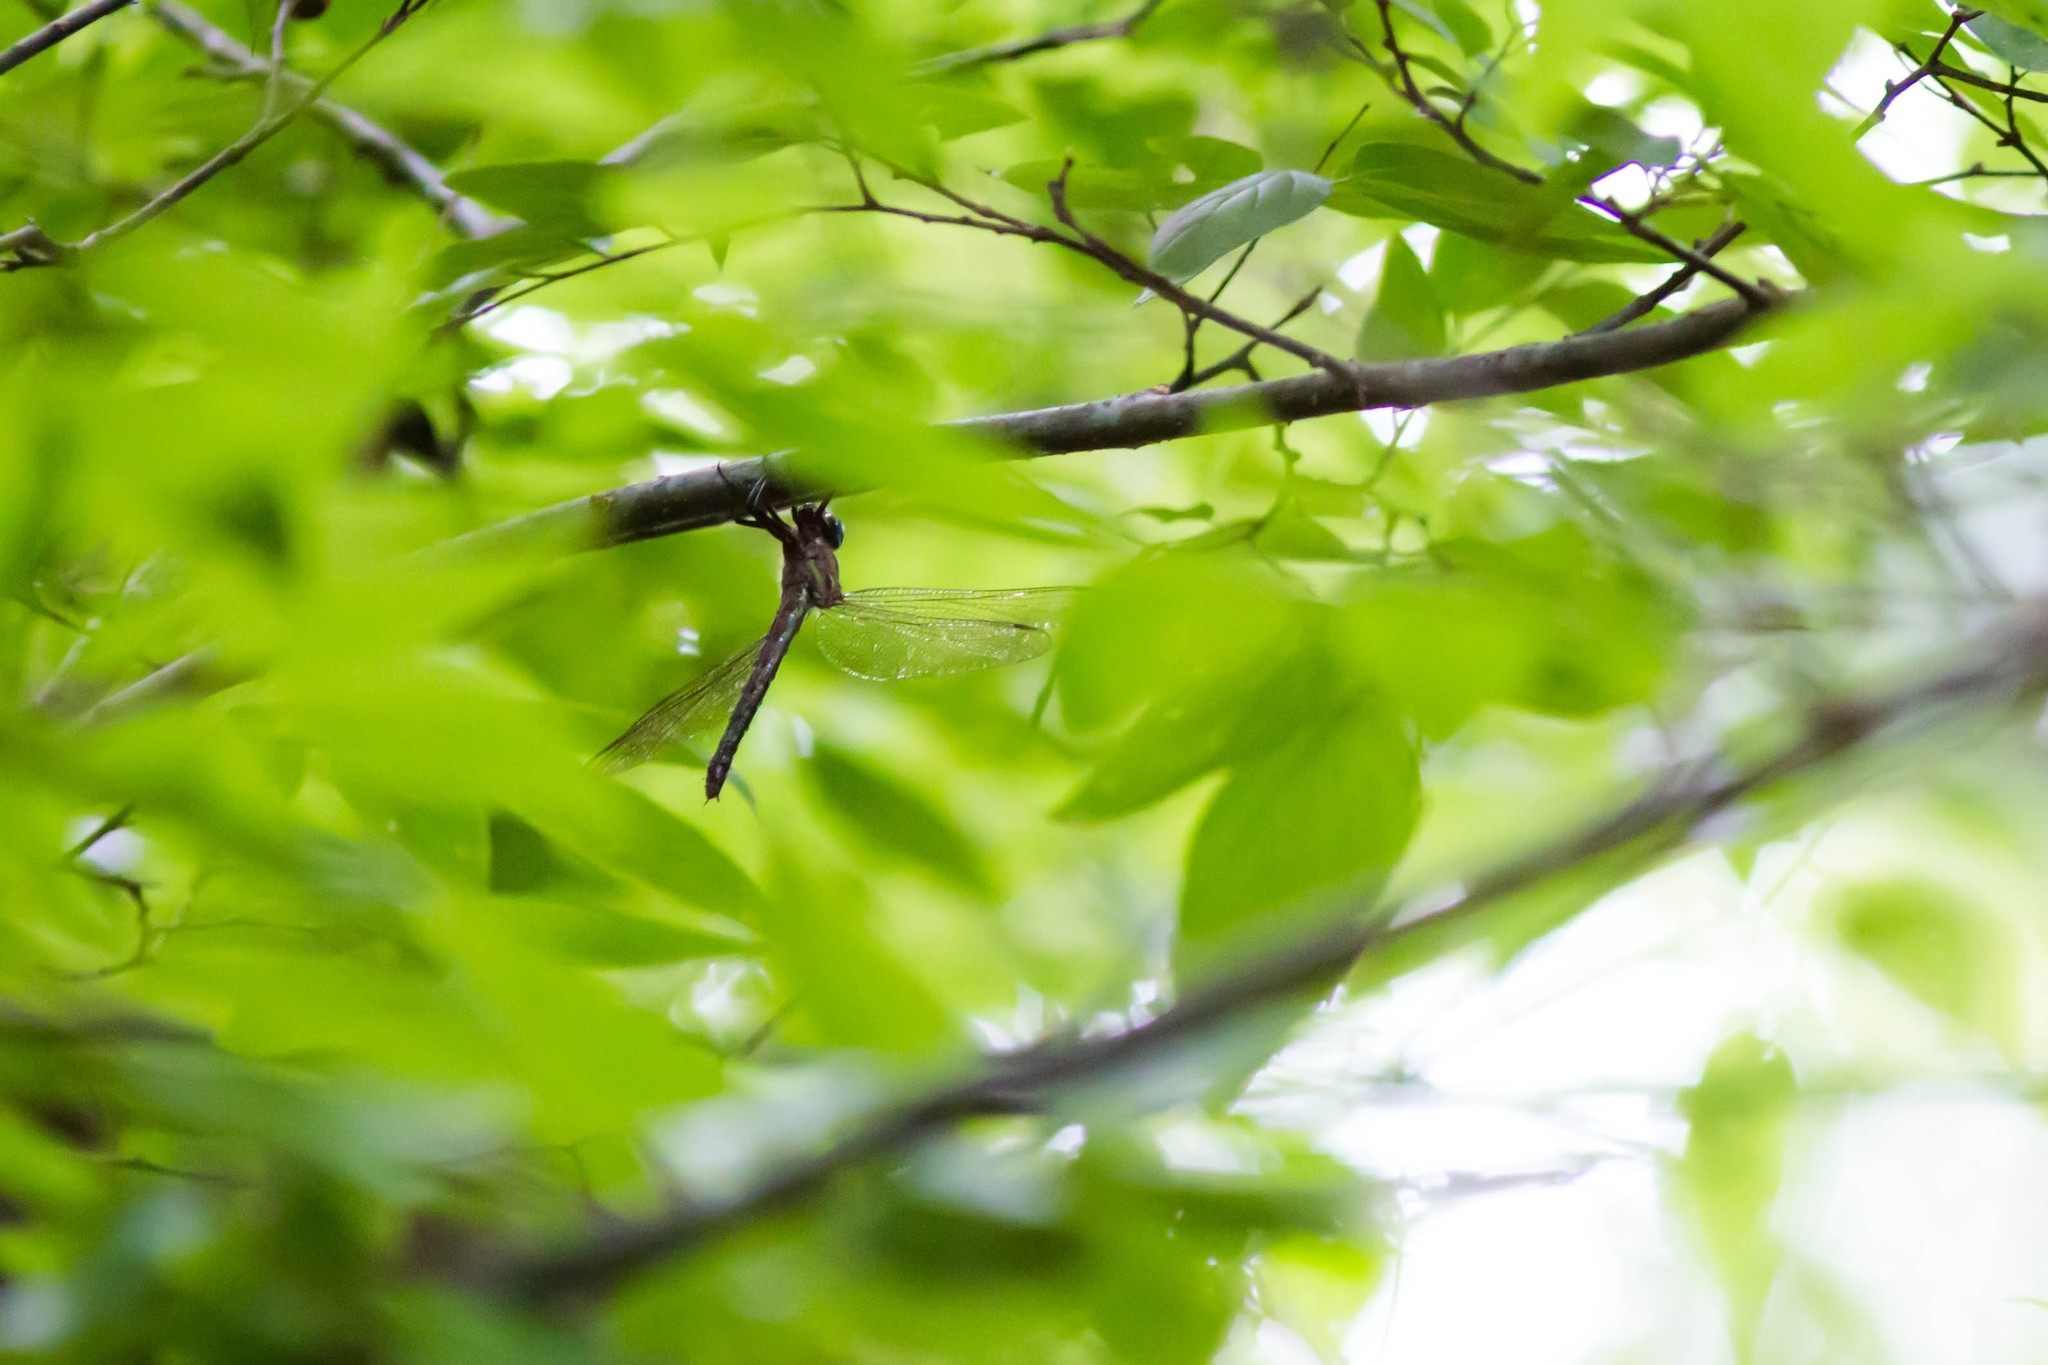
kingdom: Animalia
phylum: Arthropoda
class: Insecta
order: Odonata
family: Aeshnidae
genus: Nasiaeschna
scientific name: Nasiaeschna pentacantha
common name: Cyrano darner
